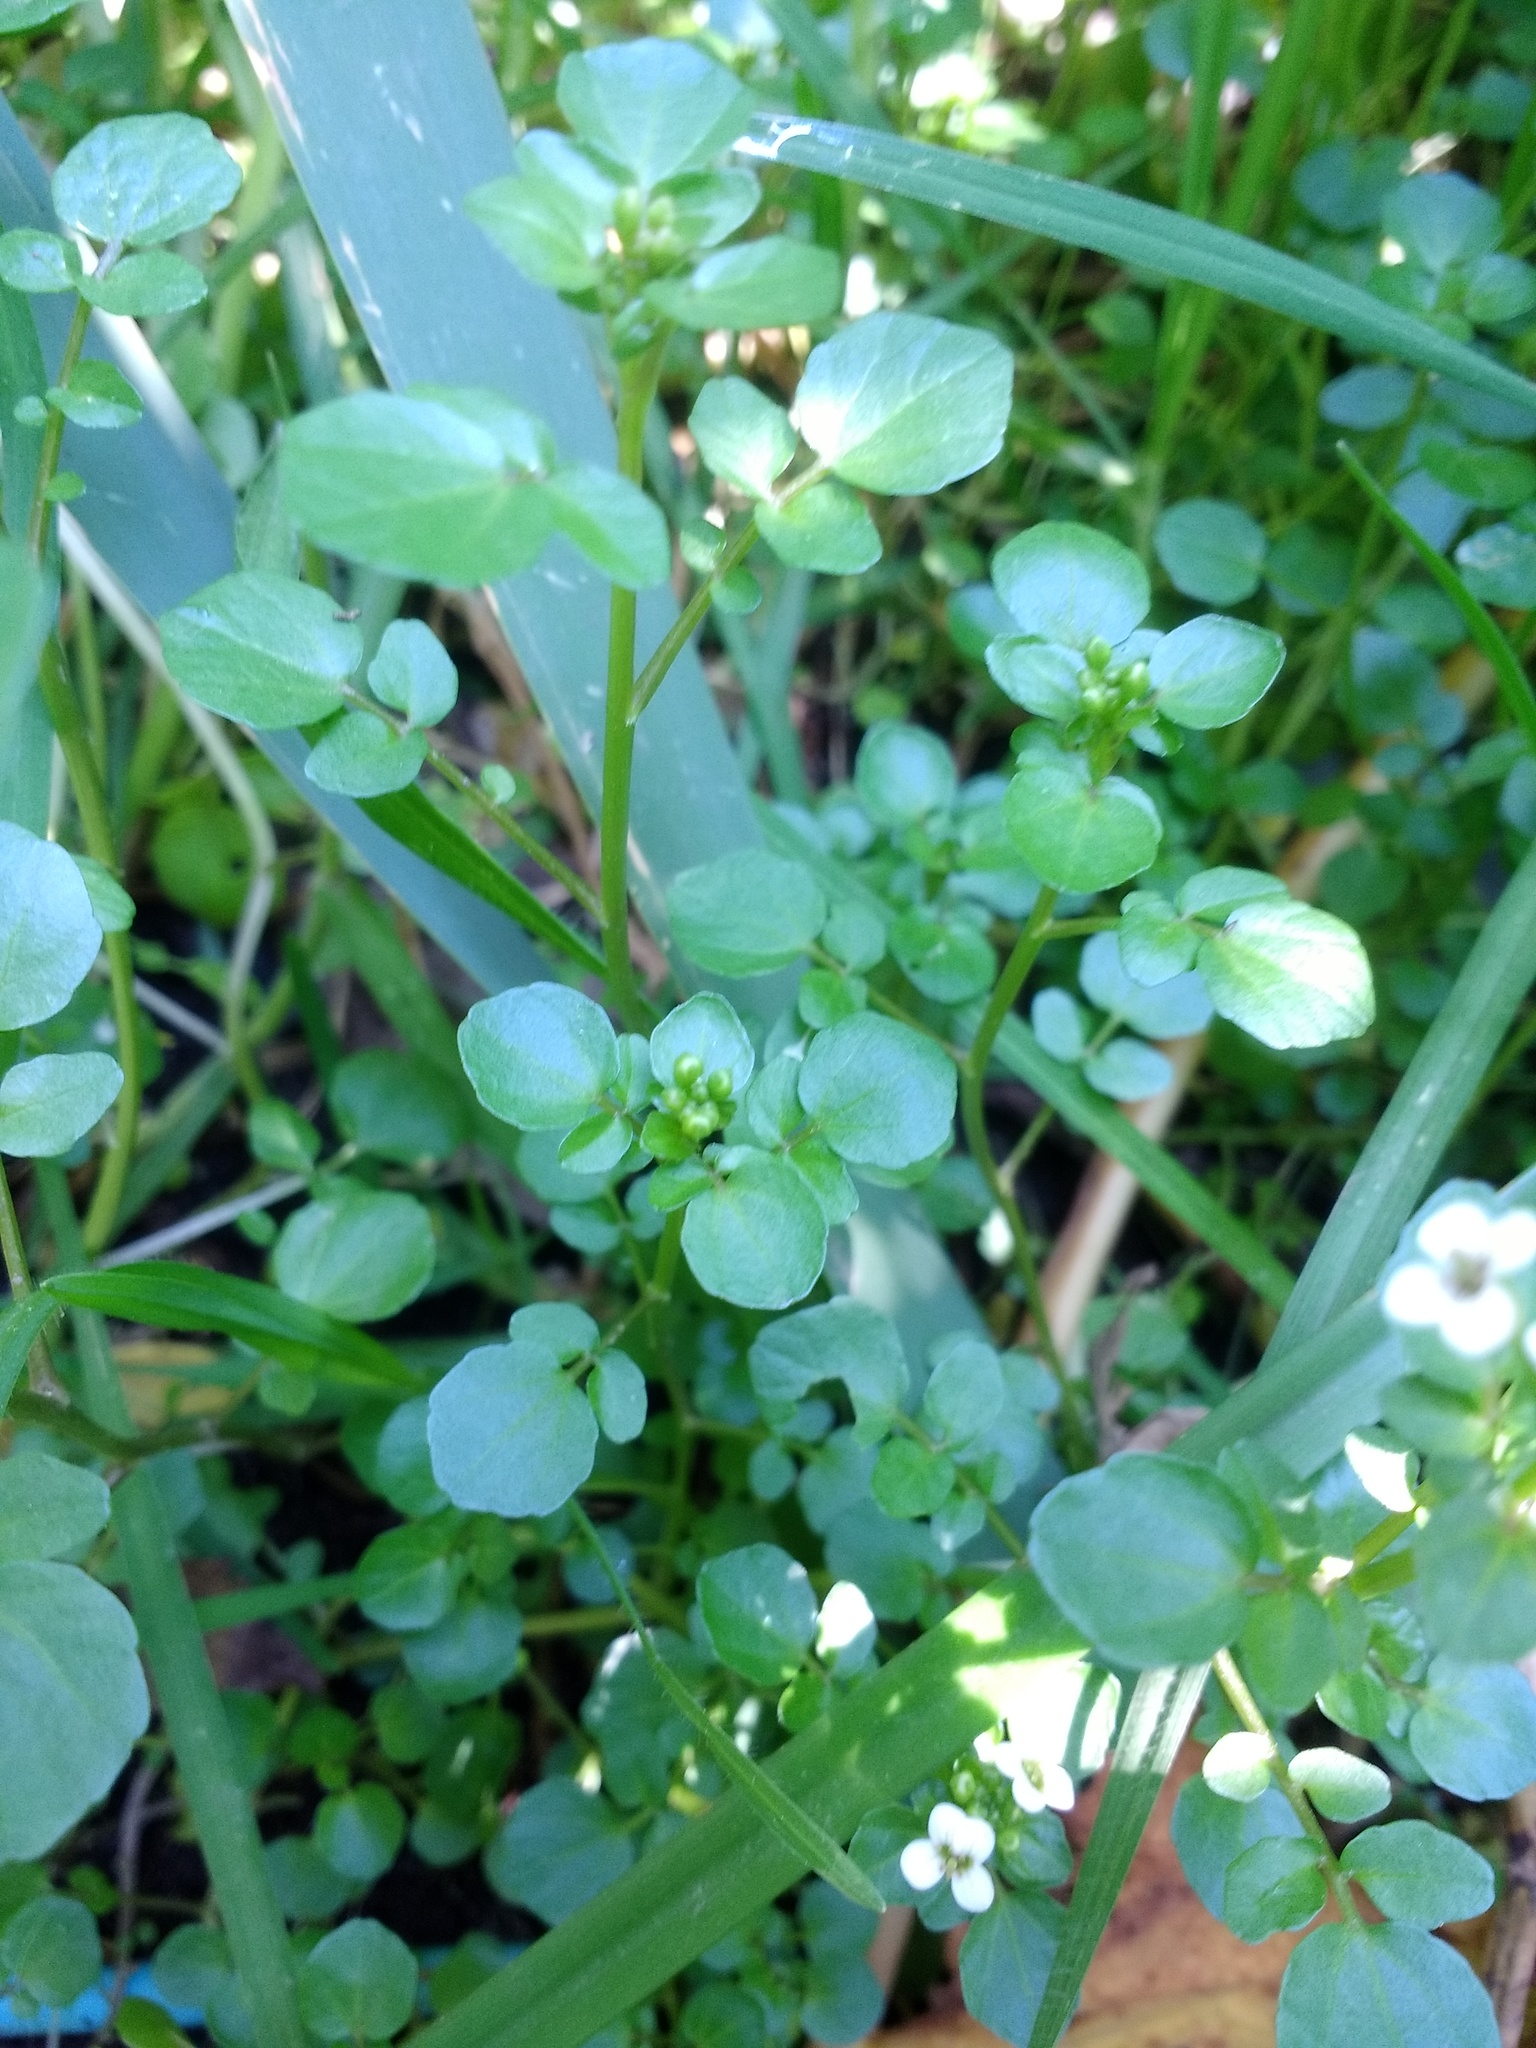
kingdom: Plantae
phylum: Tracheophyta
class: Magnoliopsida
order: Brassicales
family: Brassicaceae
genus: Nasturtium
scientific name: Nasturtium officinale
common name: Watercress
